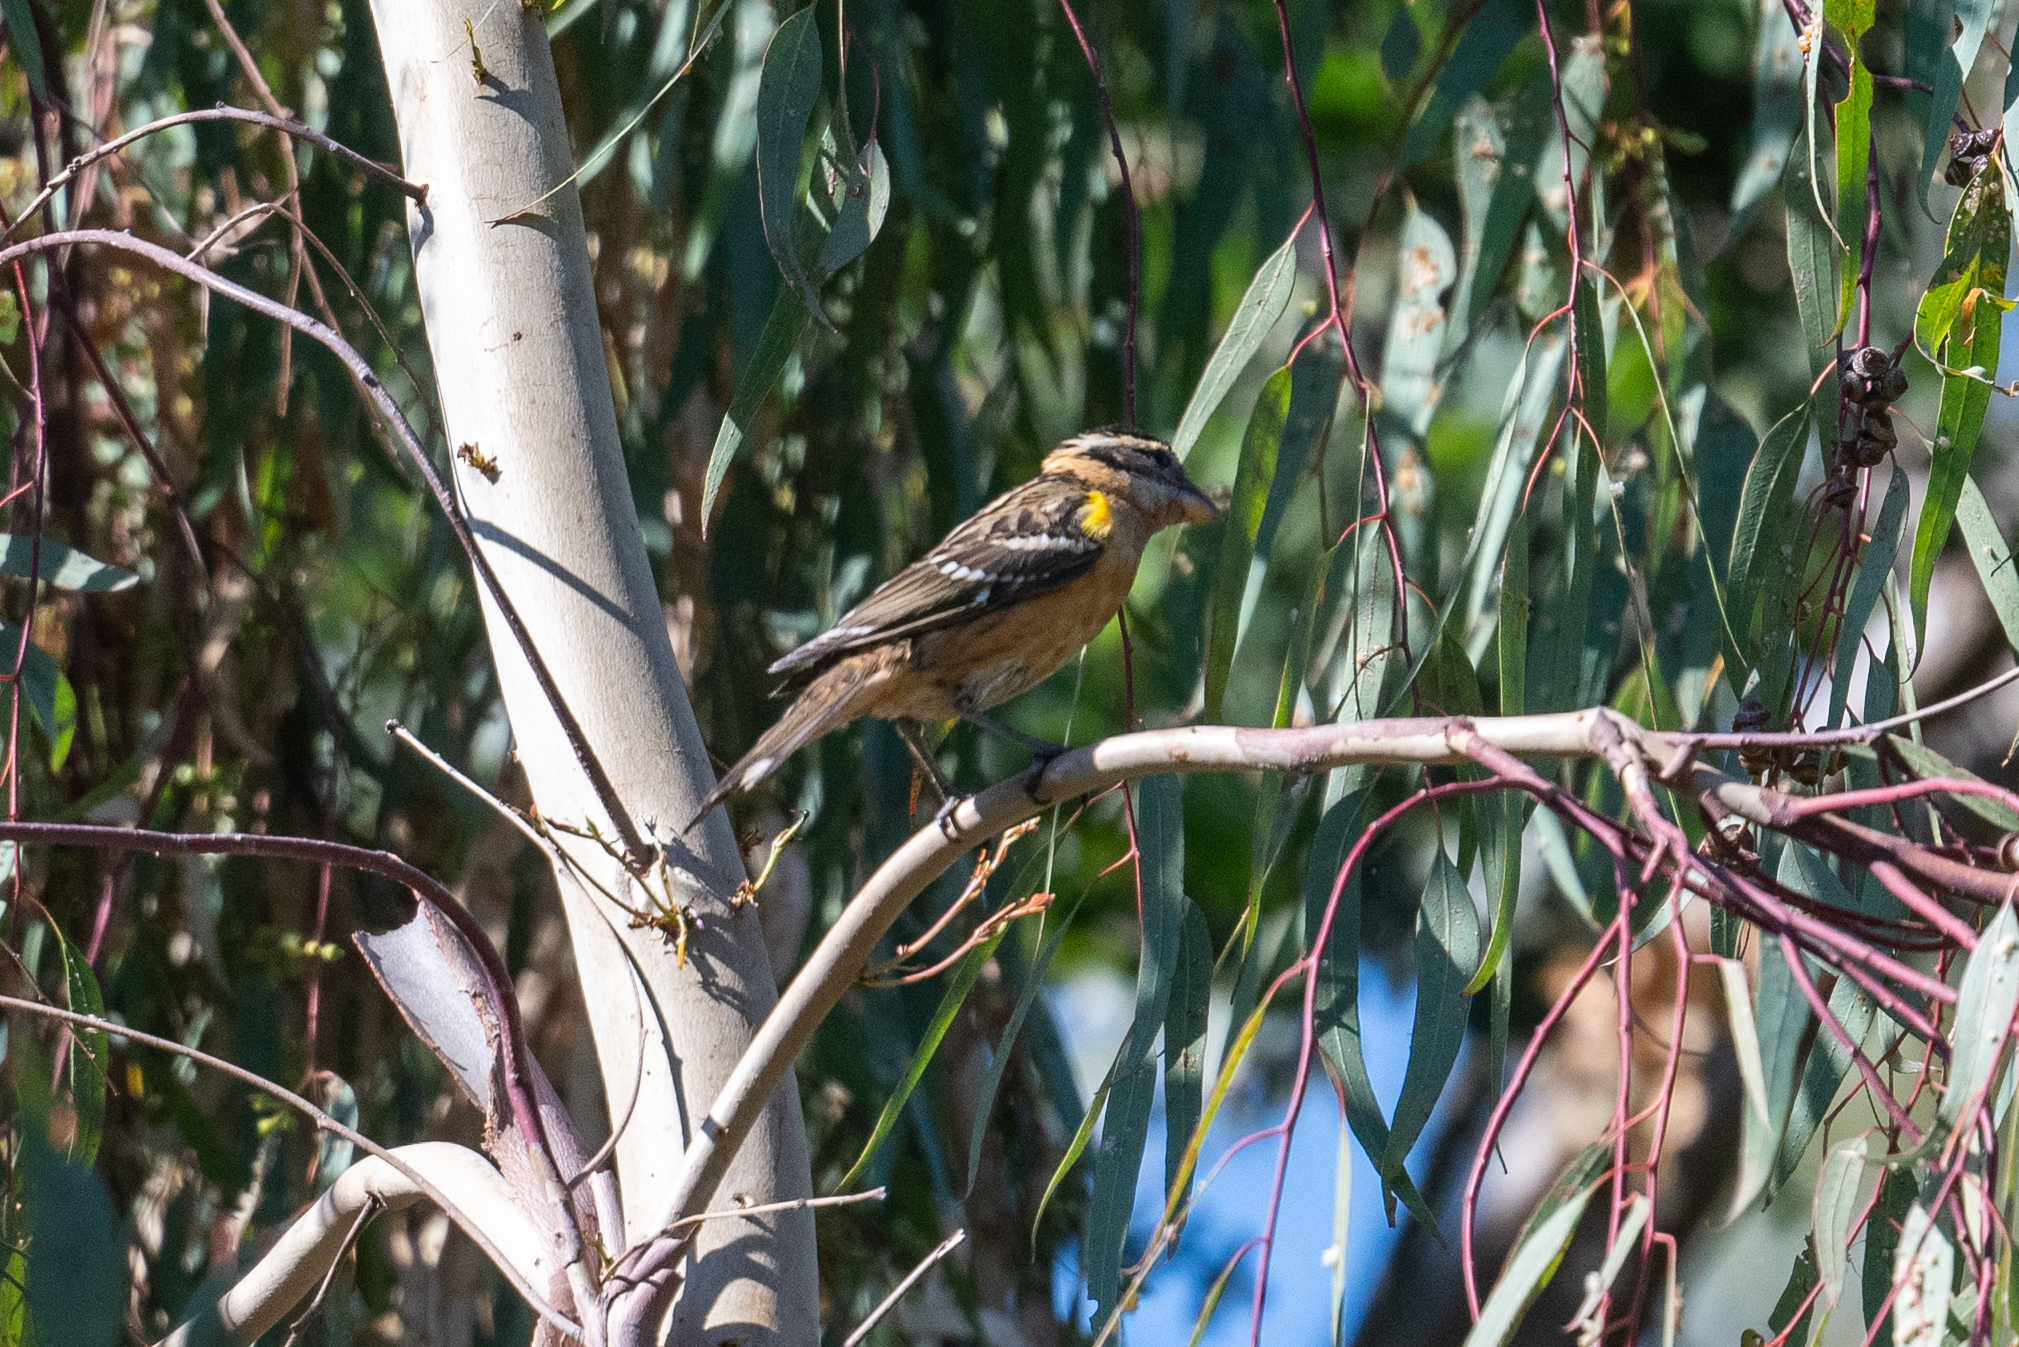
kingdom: Animalia
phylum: Chordata
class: Aves
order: Passeriformes
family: Cardinalidae
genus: Pheucticus
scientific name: Pheucticus melanocephalus
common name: Black-headed grosbeak
